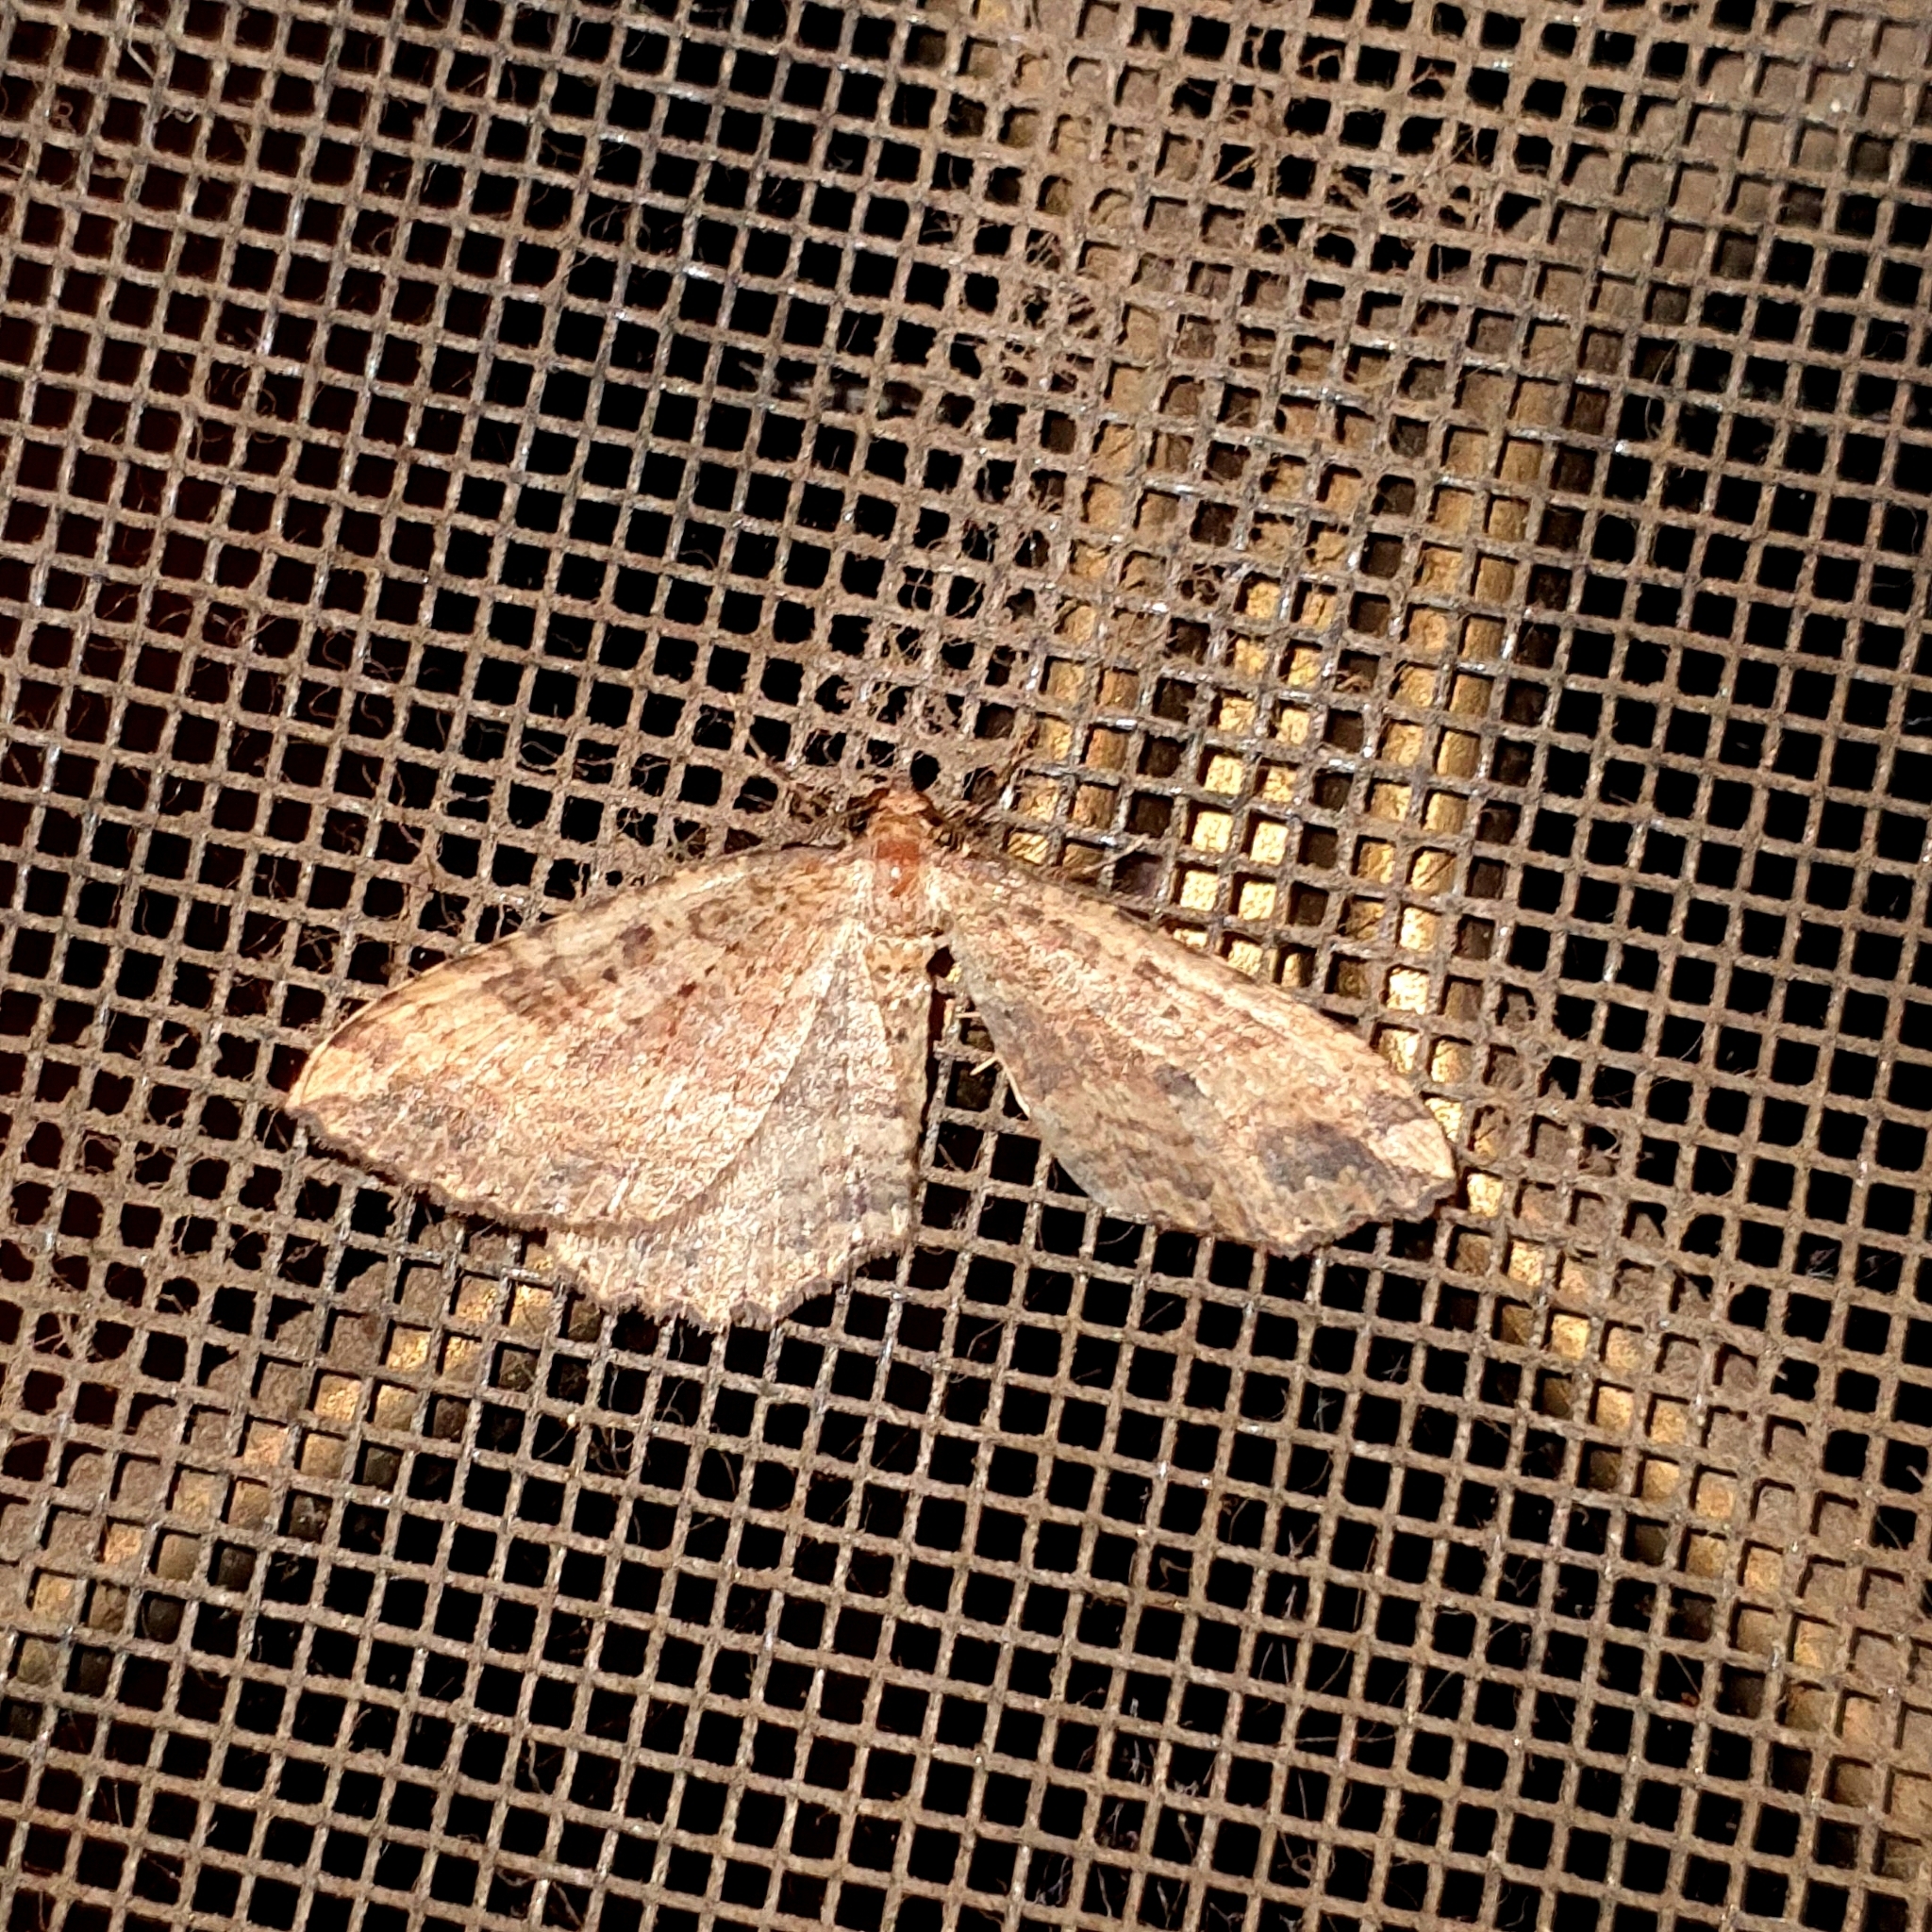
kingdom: Animalia
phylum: Arthropoda
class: Insecta
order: Lepidoptera
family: Geometridae
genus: Acodia
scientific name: Acodia pauper
